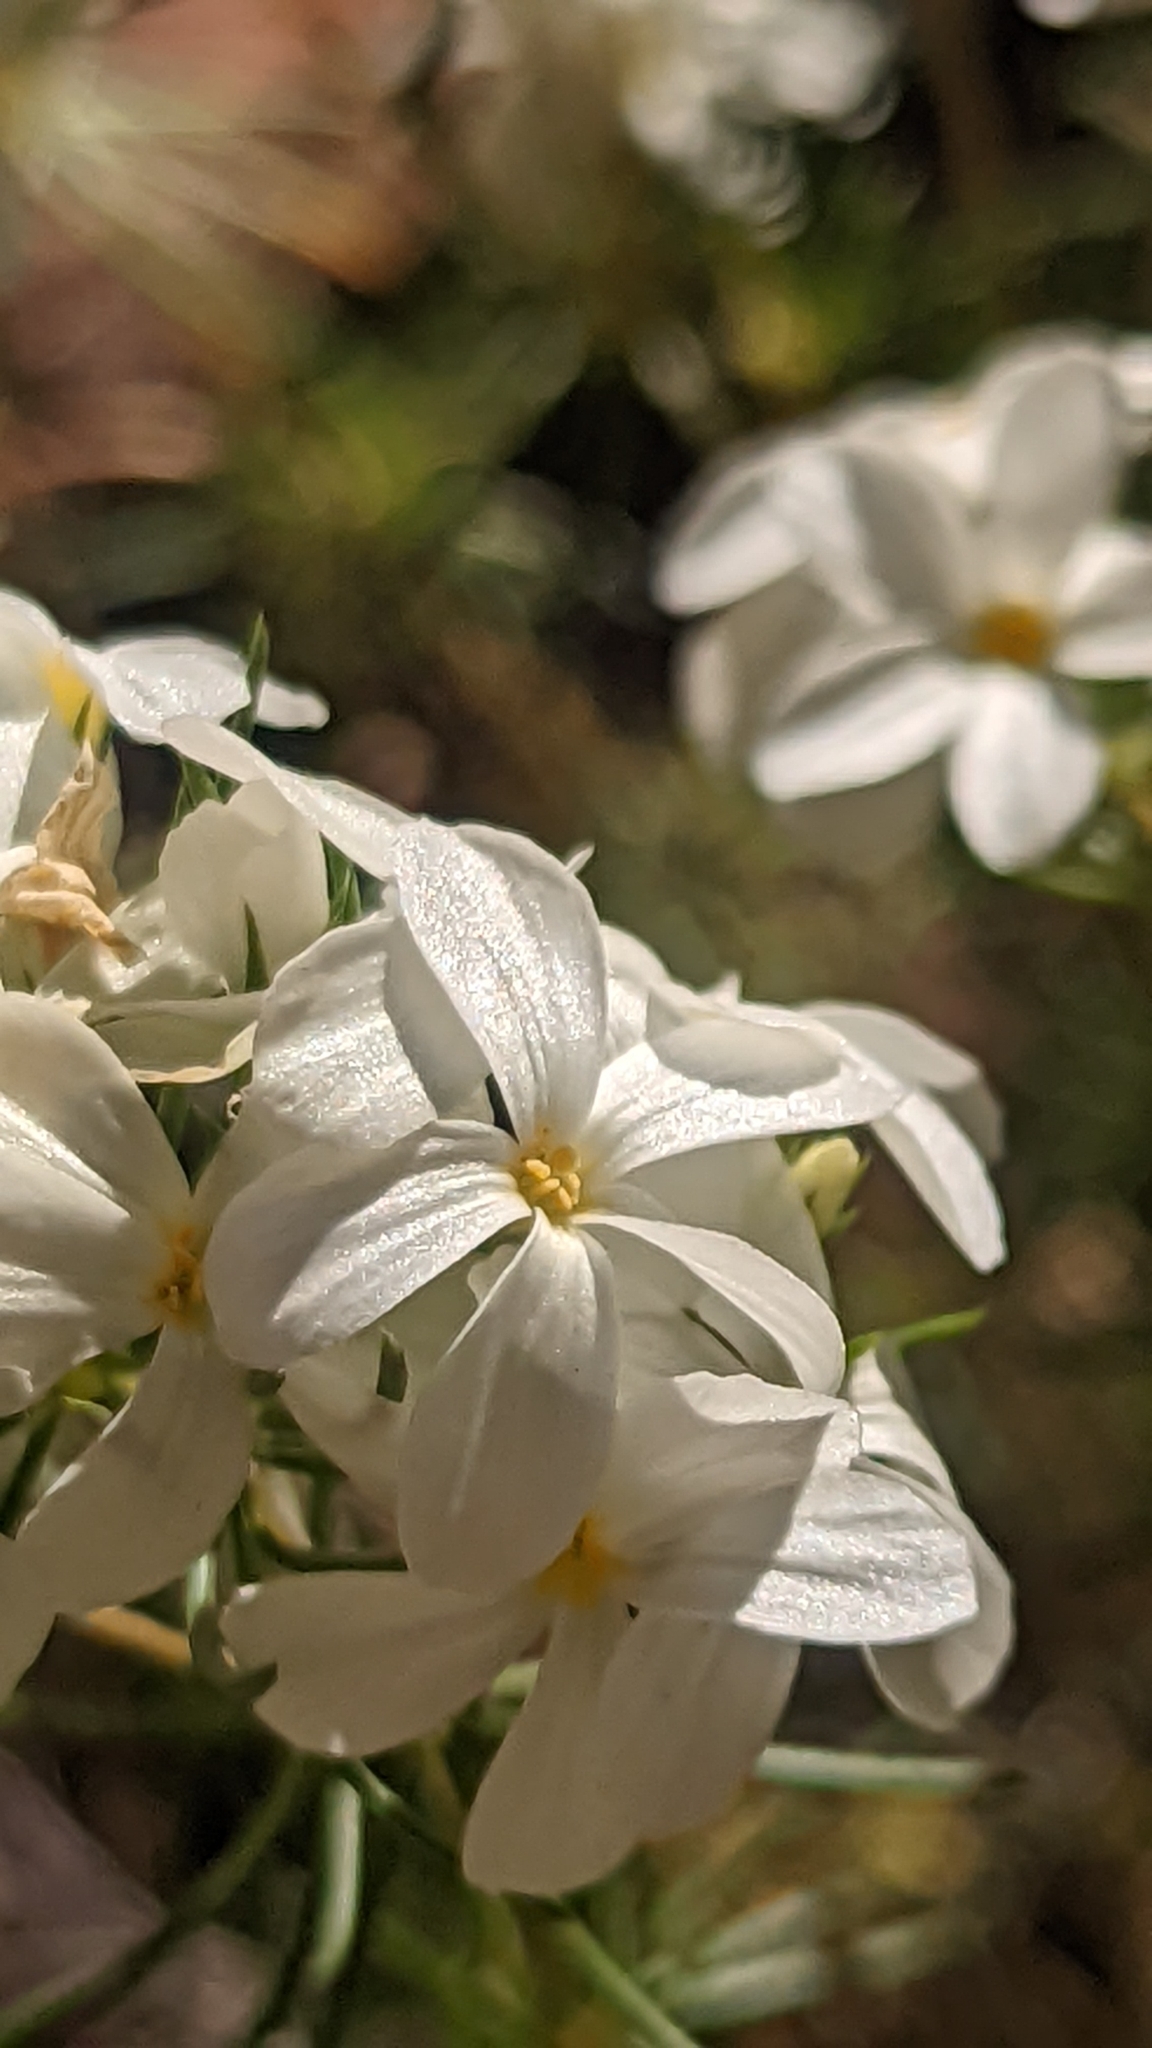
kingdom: Plantae
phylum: Tracheophyta
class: Magnoliopsida
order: Ericales
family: Polemoniaceae
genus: Leptosiphon
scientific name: Leptosiphon nuttallii
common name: Nuttall's linanthus
